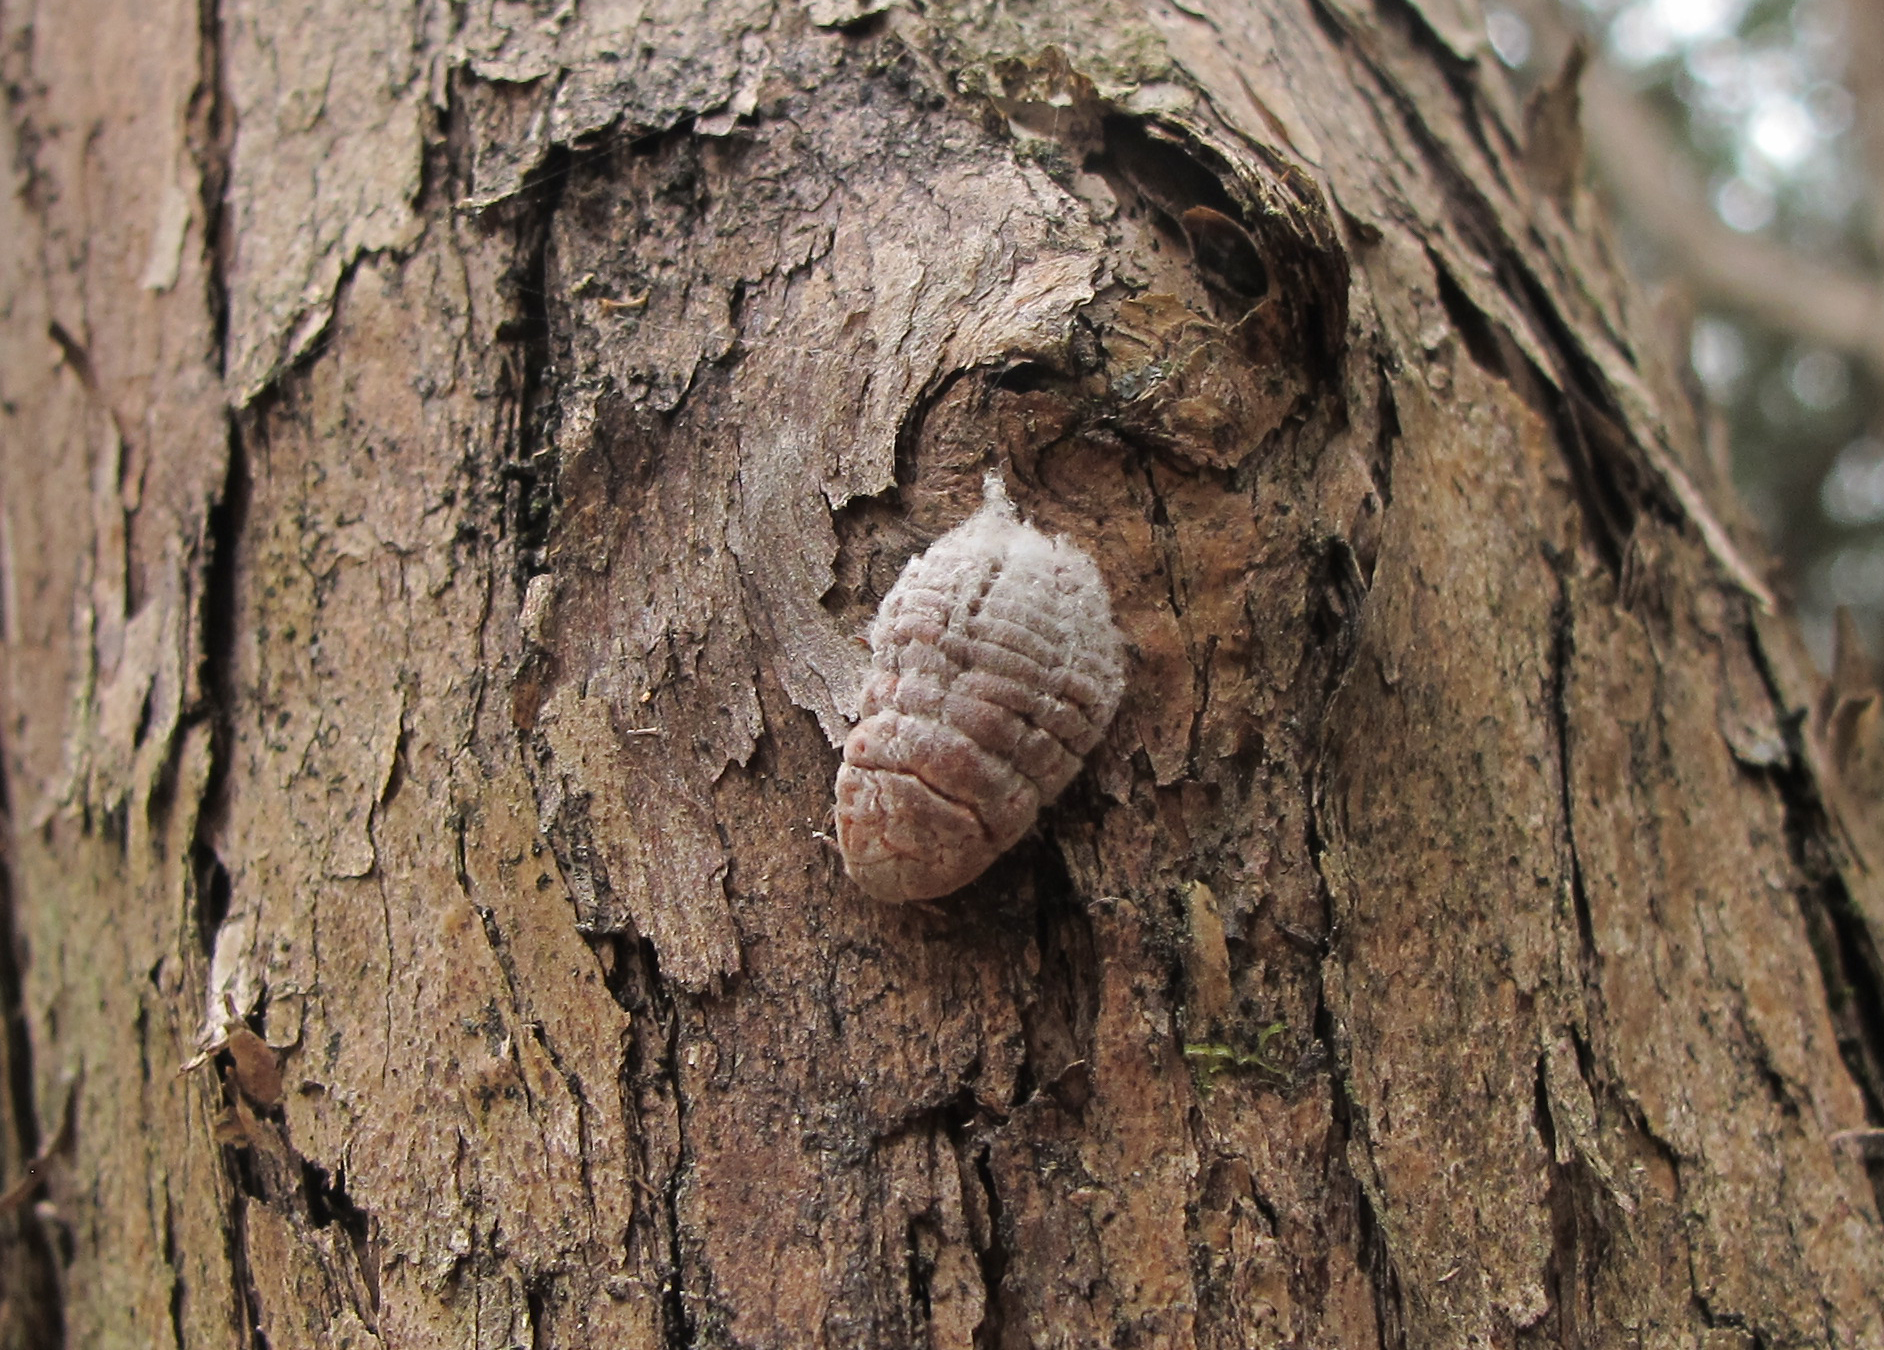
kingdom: Animalia
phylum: Arthropoda
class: Insecta
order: Hemiptera
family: Margarodidae
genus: Coelostomidia
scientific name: Coelostomidia zealandica
